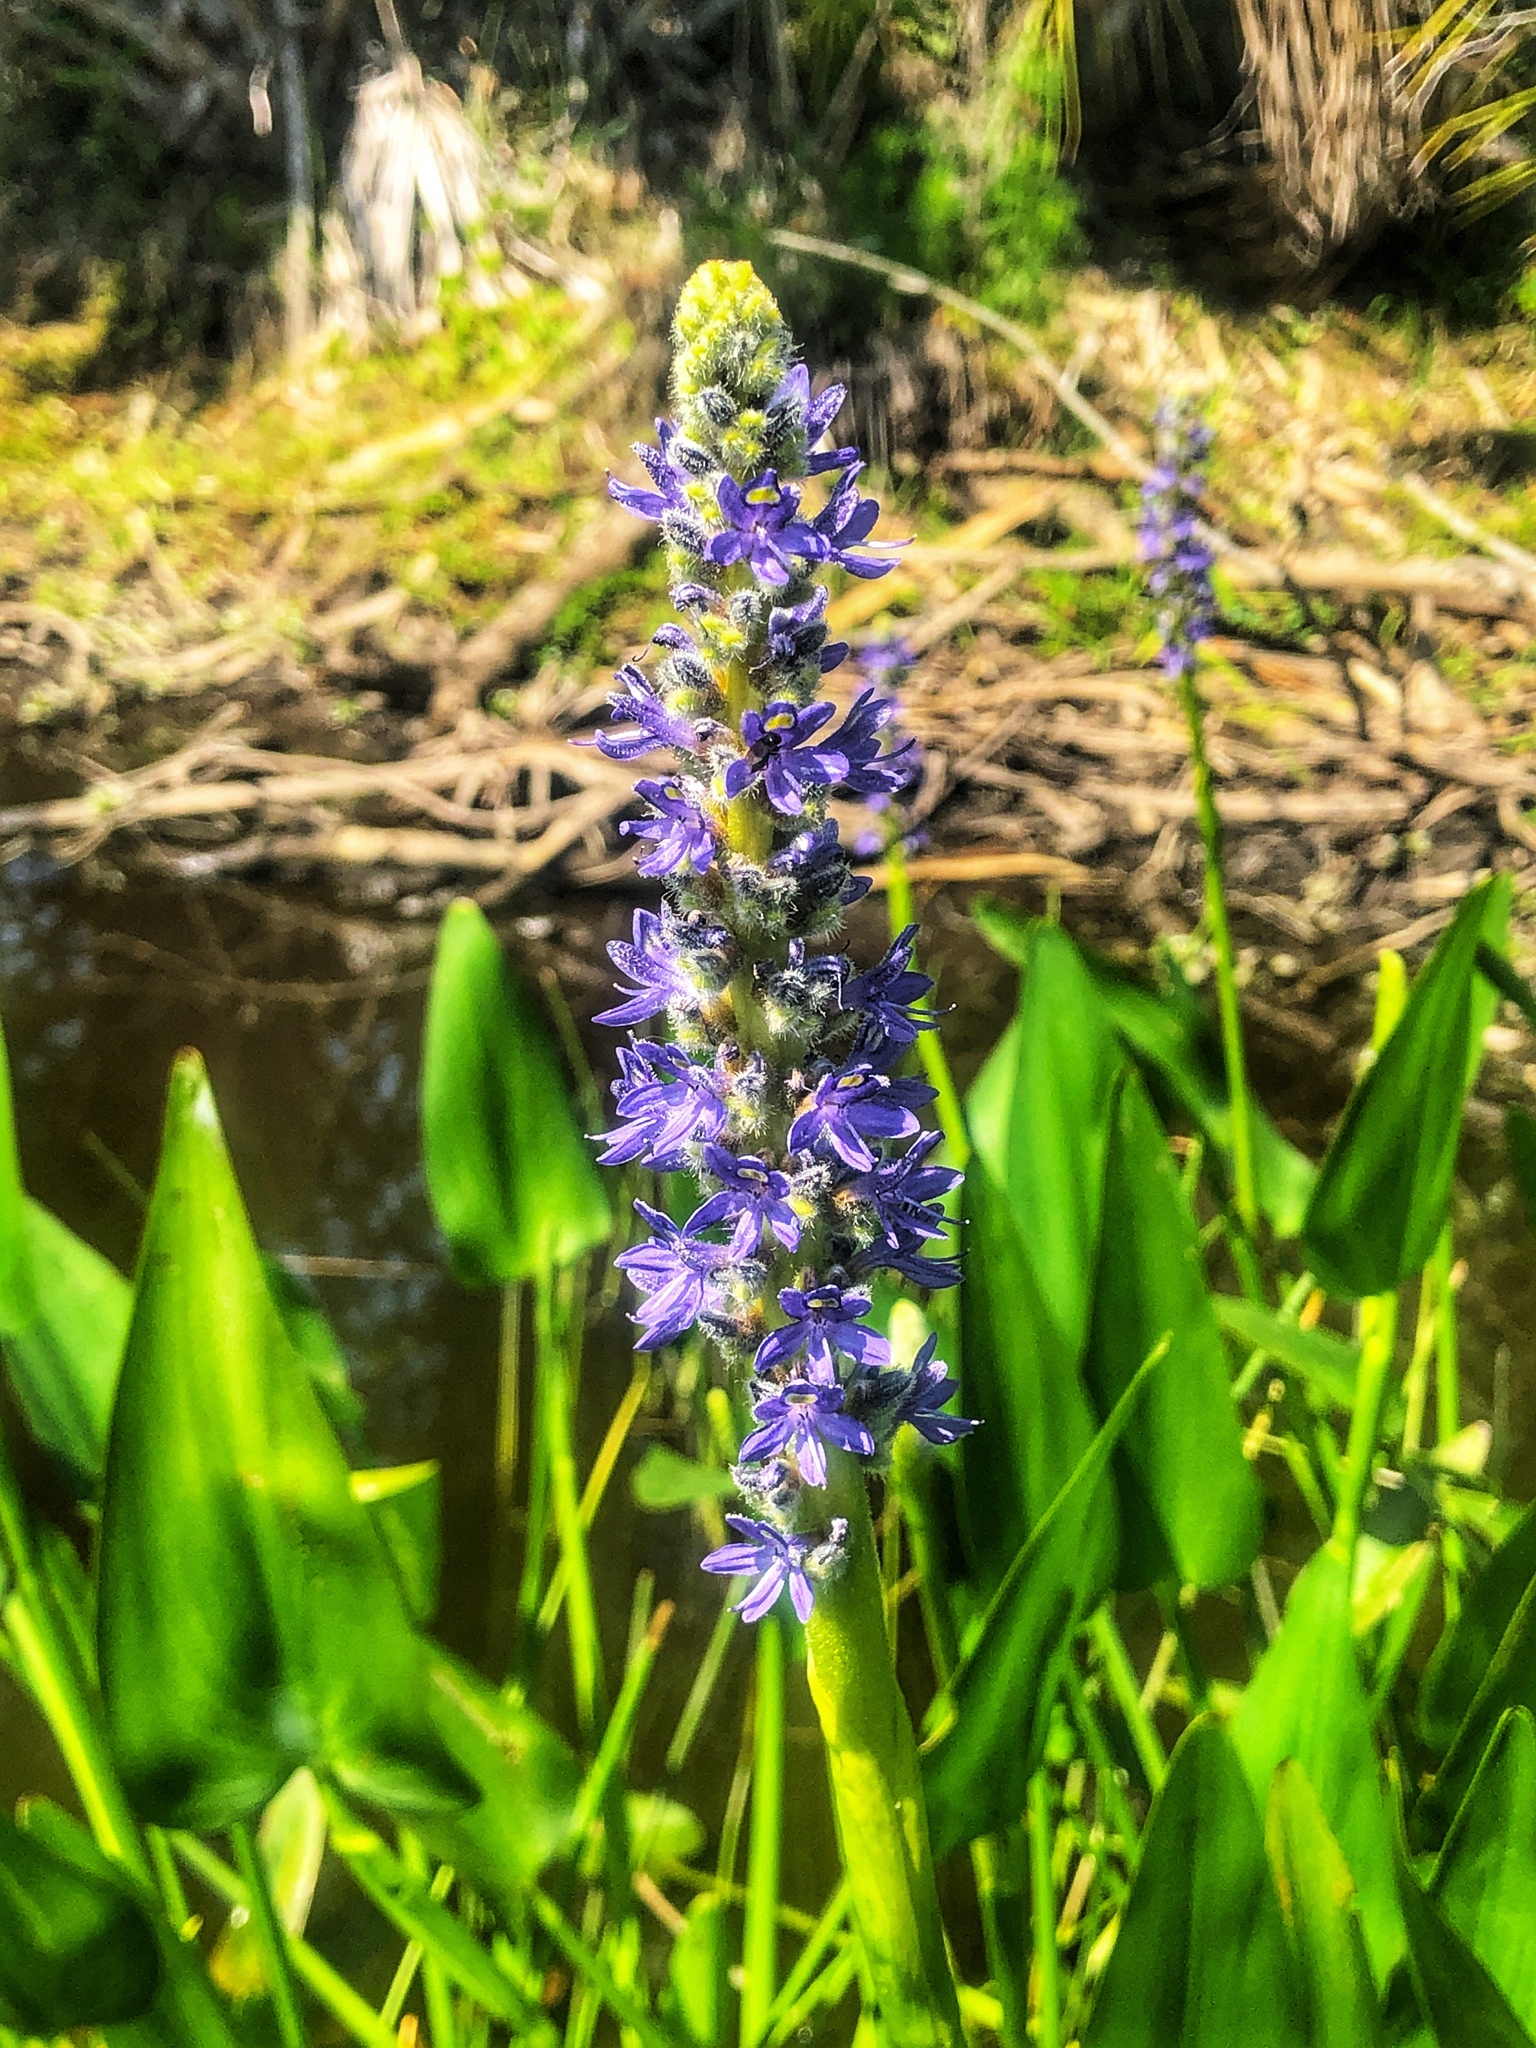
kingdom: Plantae
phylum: Tracheophyta
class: Liliopsida
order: Commelinales
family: Pontederiaceae
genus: Pontederia
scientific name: Pontederia cordata
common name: Pickerelweed
